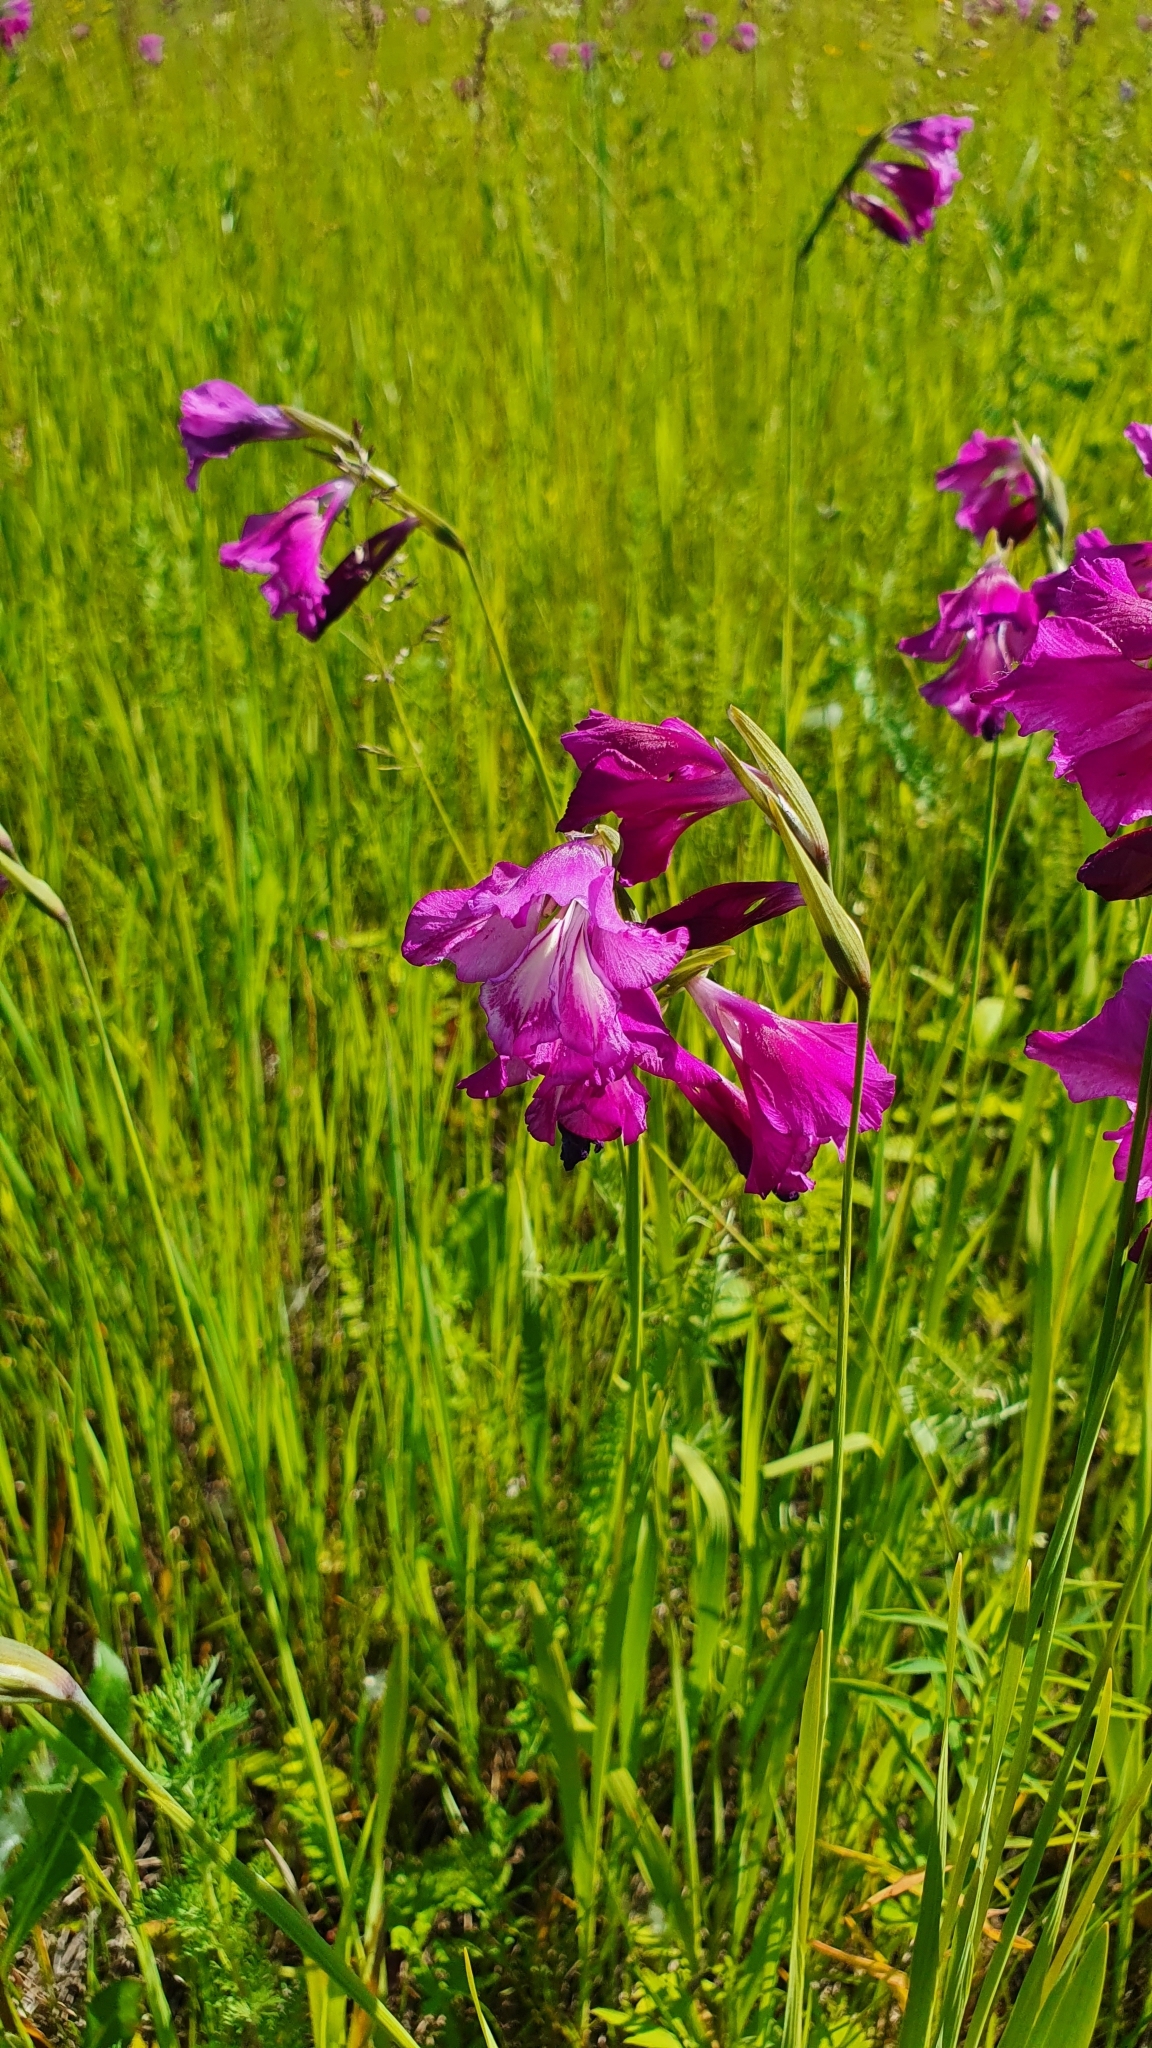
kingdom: Plantae
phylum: Tracheophyta
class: Liliopsida
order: Asparagales
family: Iridaceae
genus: Gladiolus
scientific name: Gladiolus tenuis
